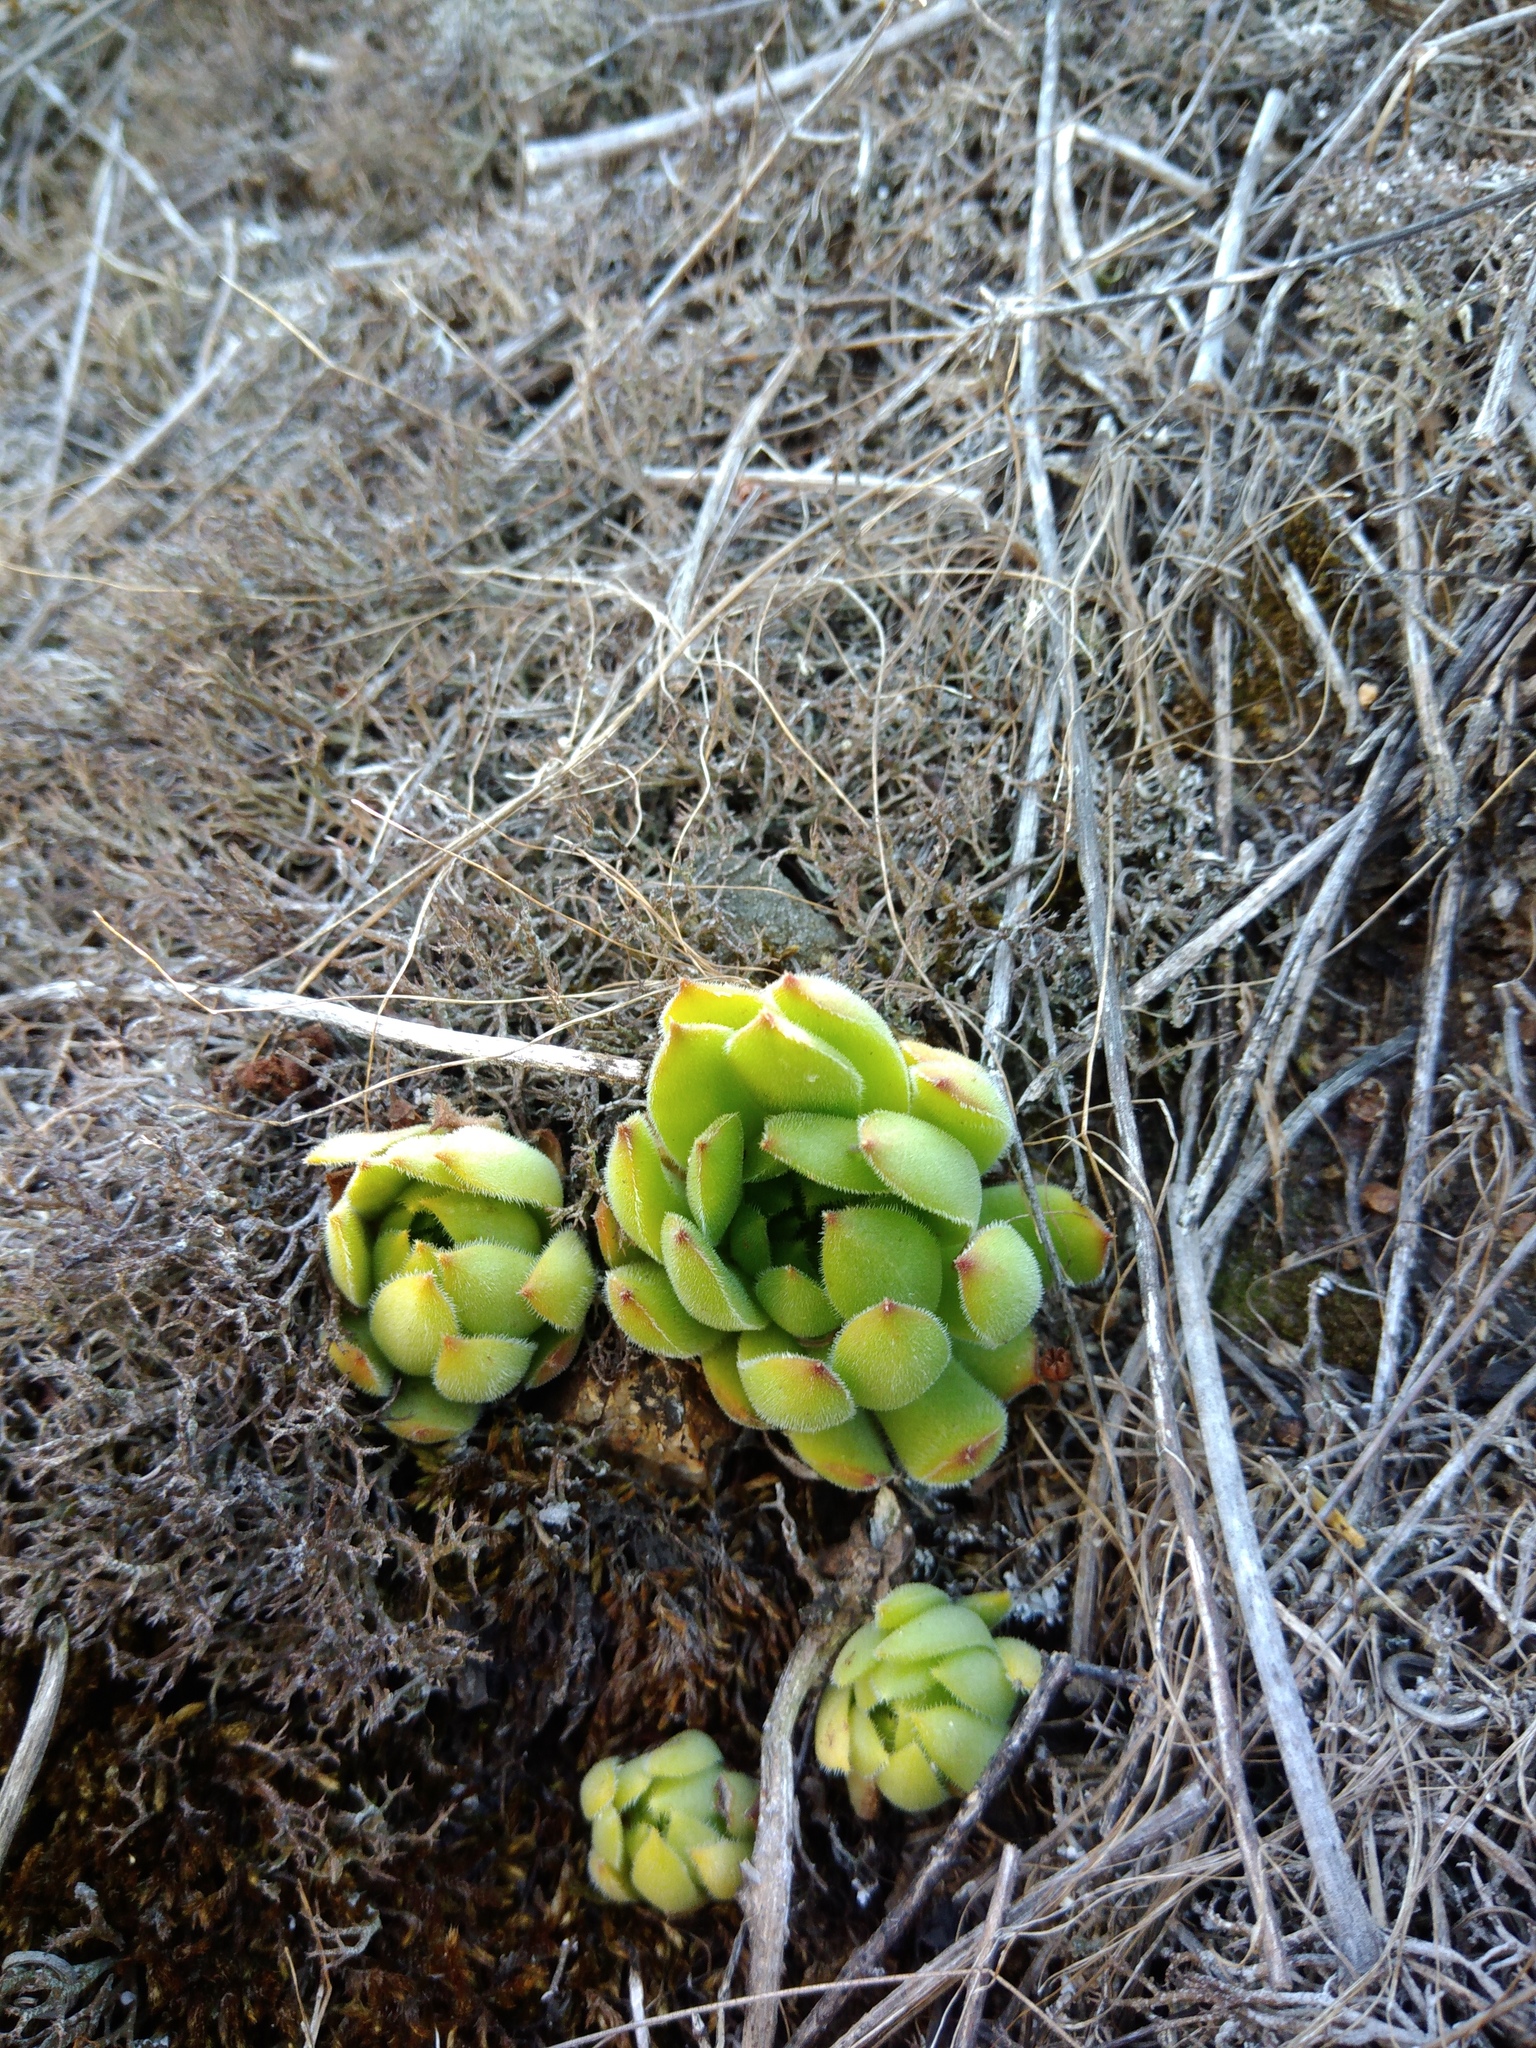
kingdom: Plantae
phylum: Tracheophyta
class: Magnoliopsida
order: Saxifragales
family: Crassulaceae
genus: Sempervivum
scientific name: Sempervivum ruthenicum
